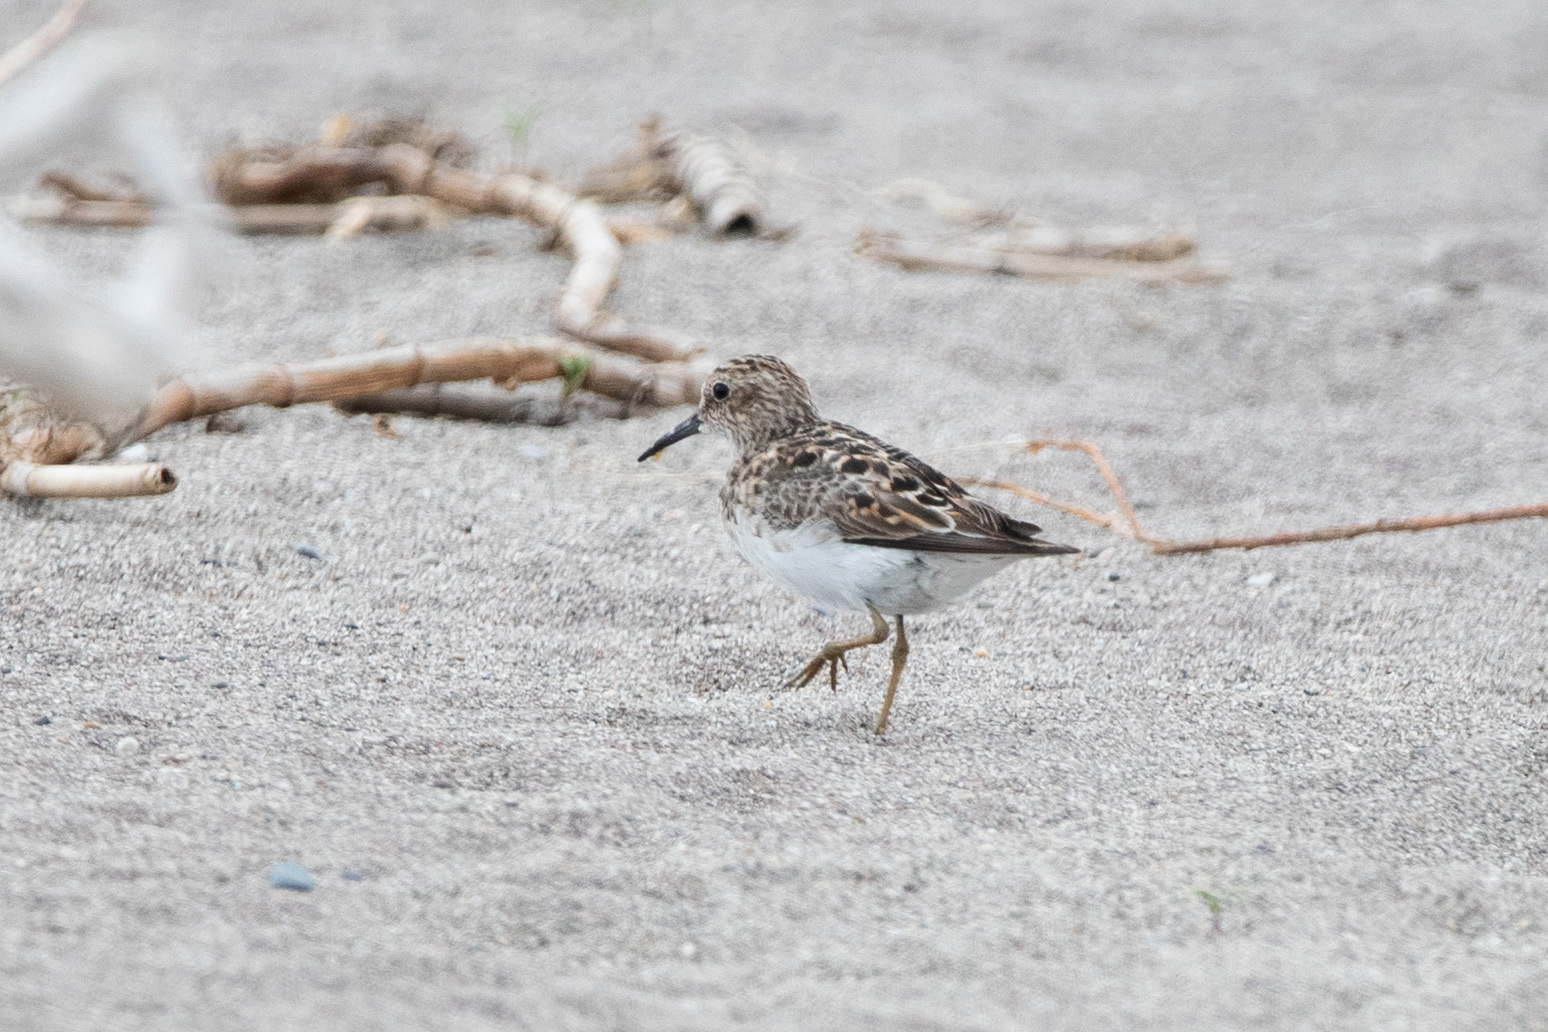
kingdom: Animalia
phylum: Chordata
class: Aves
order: Charadriiformes
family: Scolopacidae
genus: Calidris
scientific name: Calidris minutilla
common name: Least sandpiper
